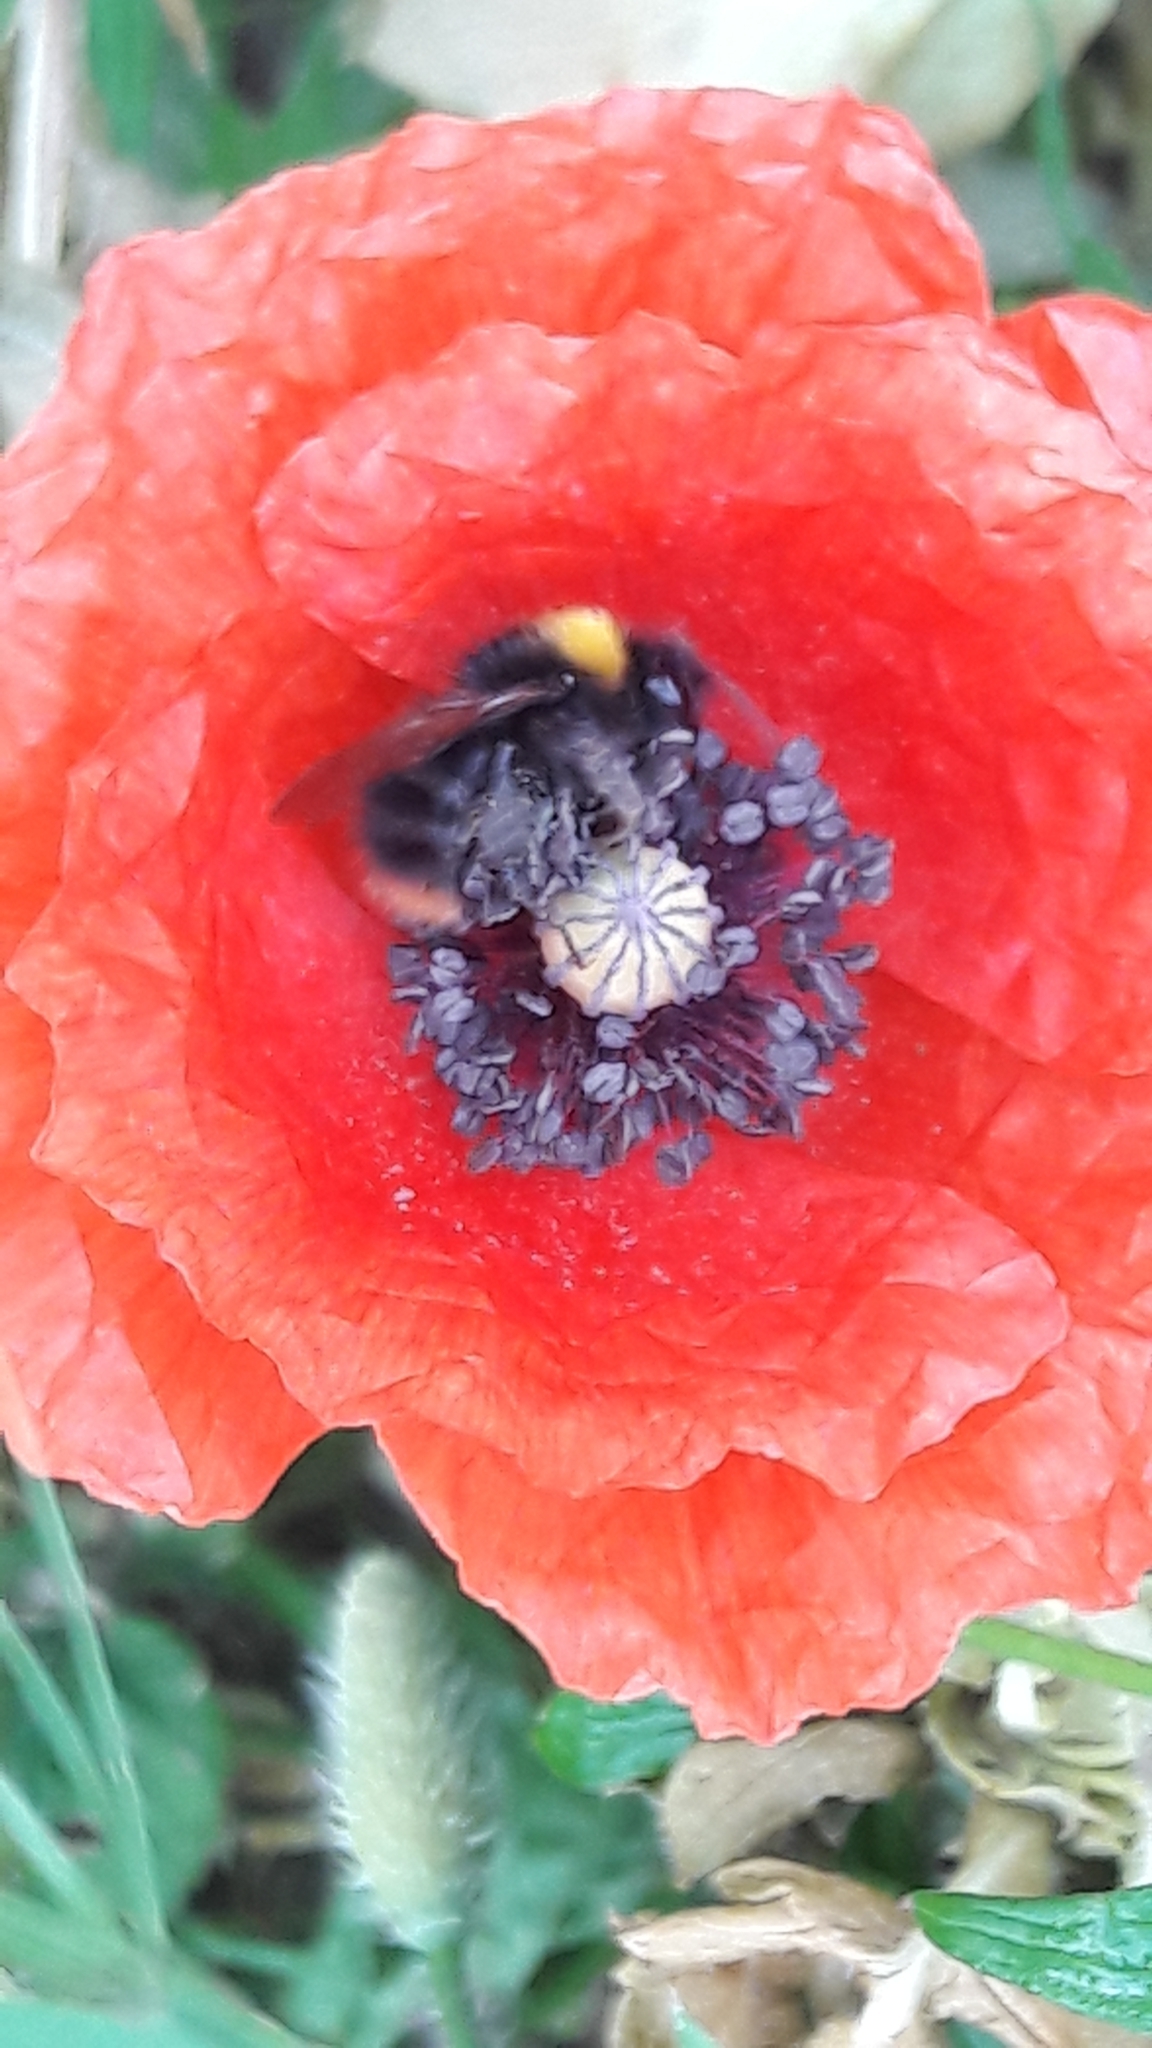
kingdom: Animalia
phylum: Arthropoda
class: Insecta
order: Hymenoptera
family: Apidae
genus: Bombus
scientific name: Bombus pratorum
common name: Early humble-bee
